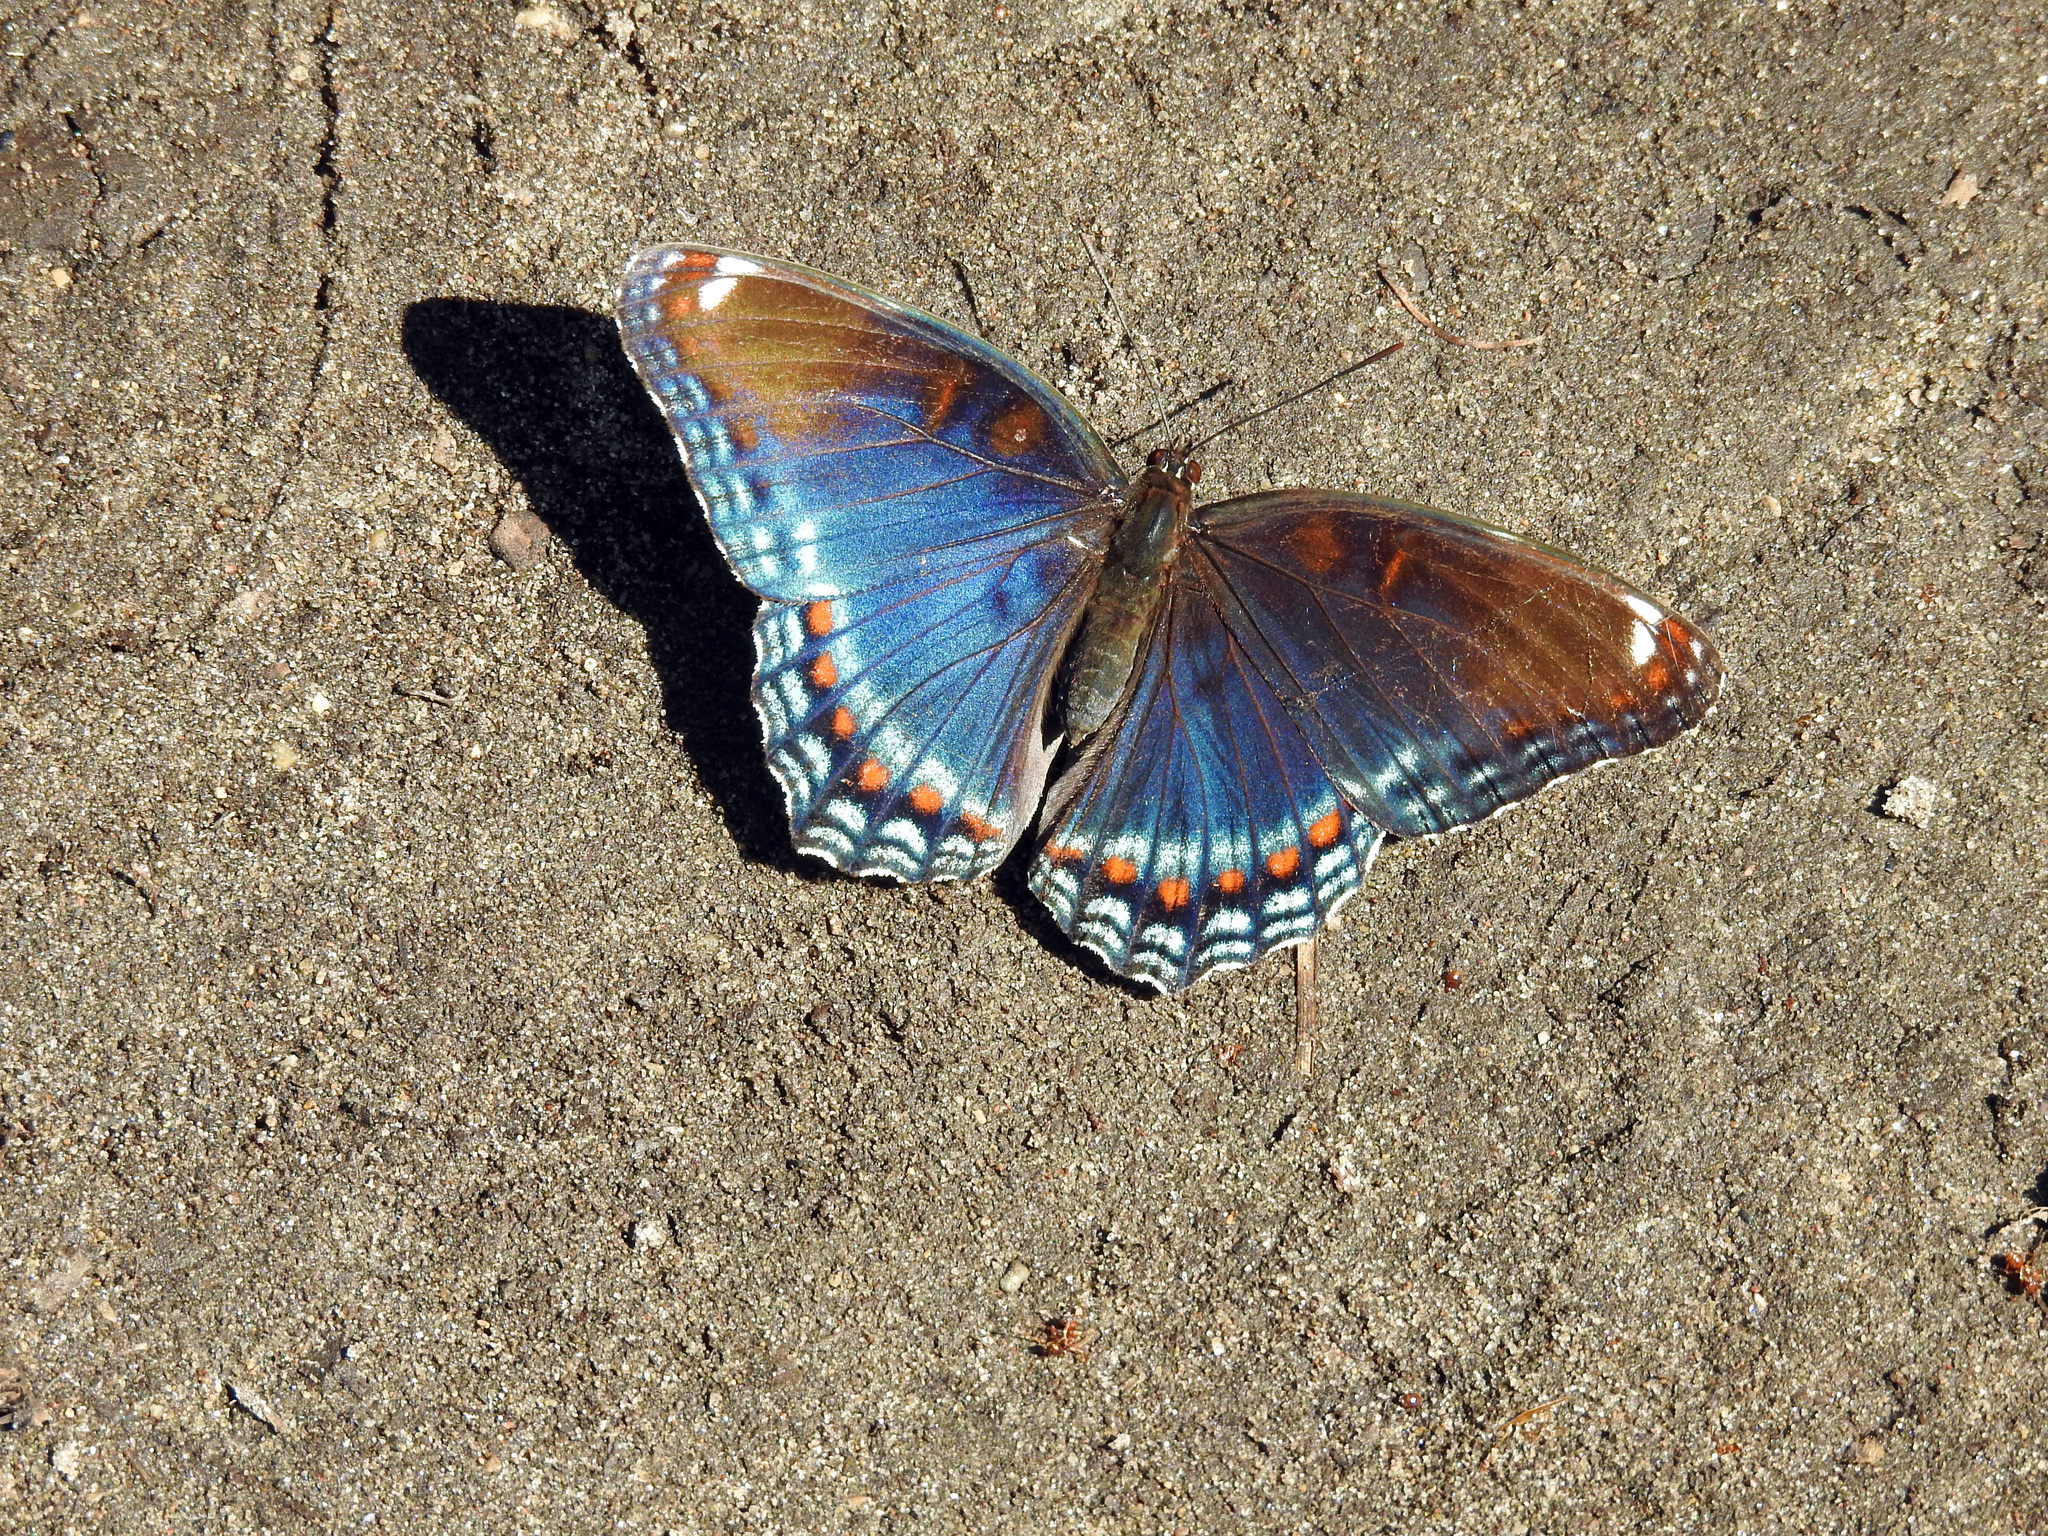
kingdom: Animalia
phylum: Arthropoda
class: Insecta
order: Lepidoptera
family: Nymphalidae
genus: Limenitis
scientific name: Limenitis astyanax
